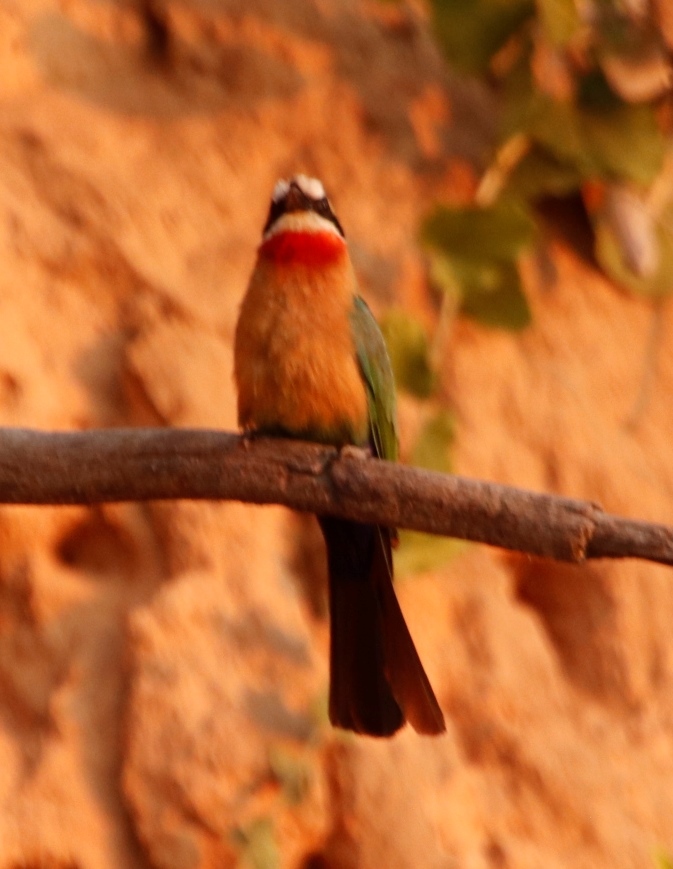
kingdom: Animalia
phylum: Chordata
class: Aves
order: Coraciiformes
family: Meropidae
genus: Merops
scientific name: Merops bullockoides
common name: White-fronted bee-eater
